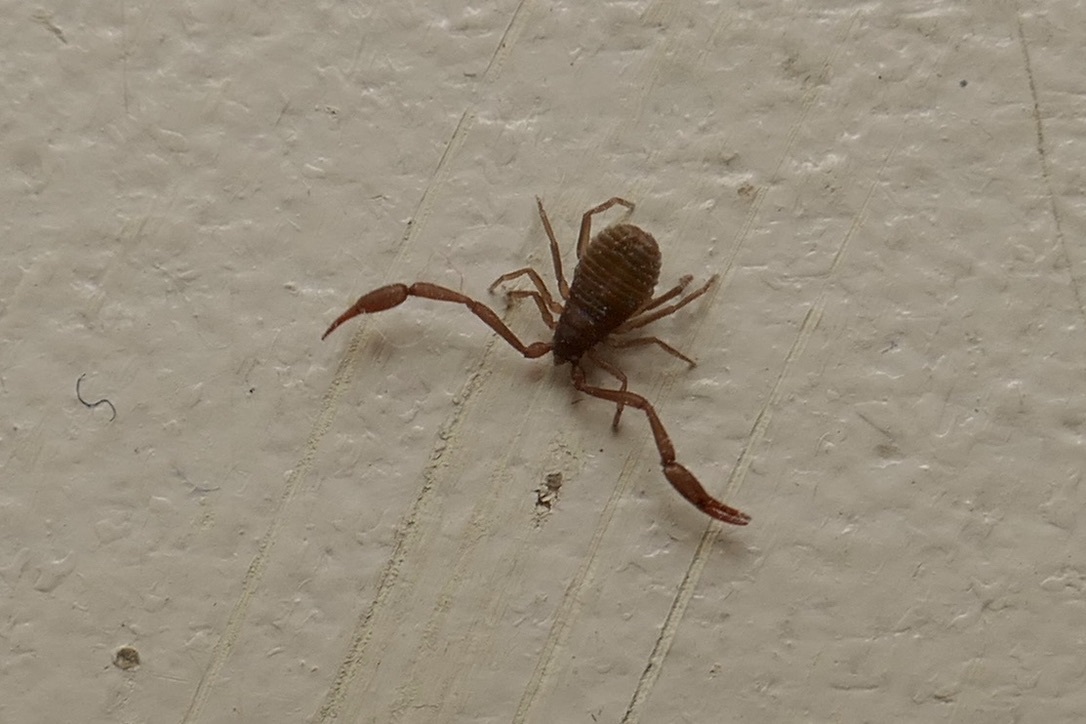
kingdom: Animalia
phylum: Arthropoda
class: Arachnida
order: Pseudoscorpiones
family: Cheliferidae
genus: Chelifer
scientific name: Chelifer cancroides
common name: House false-scorpion
